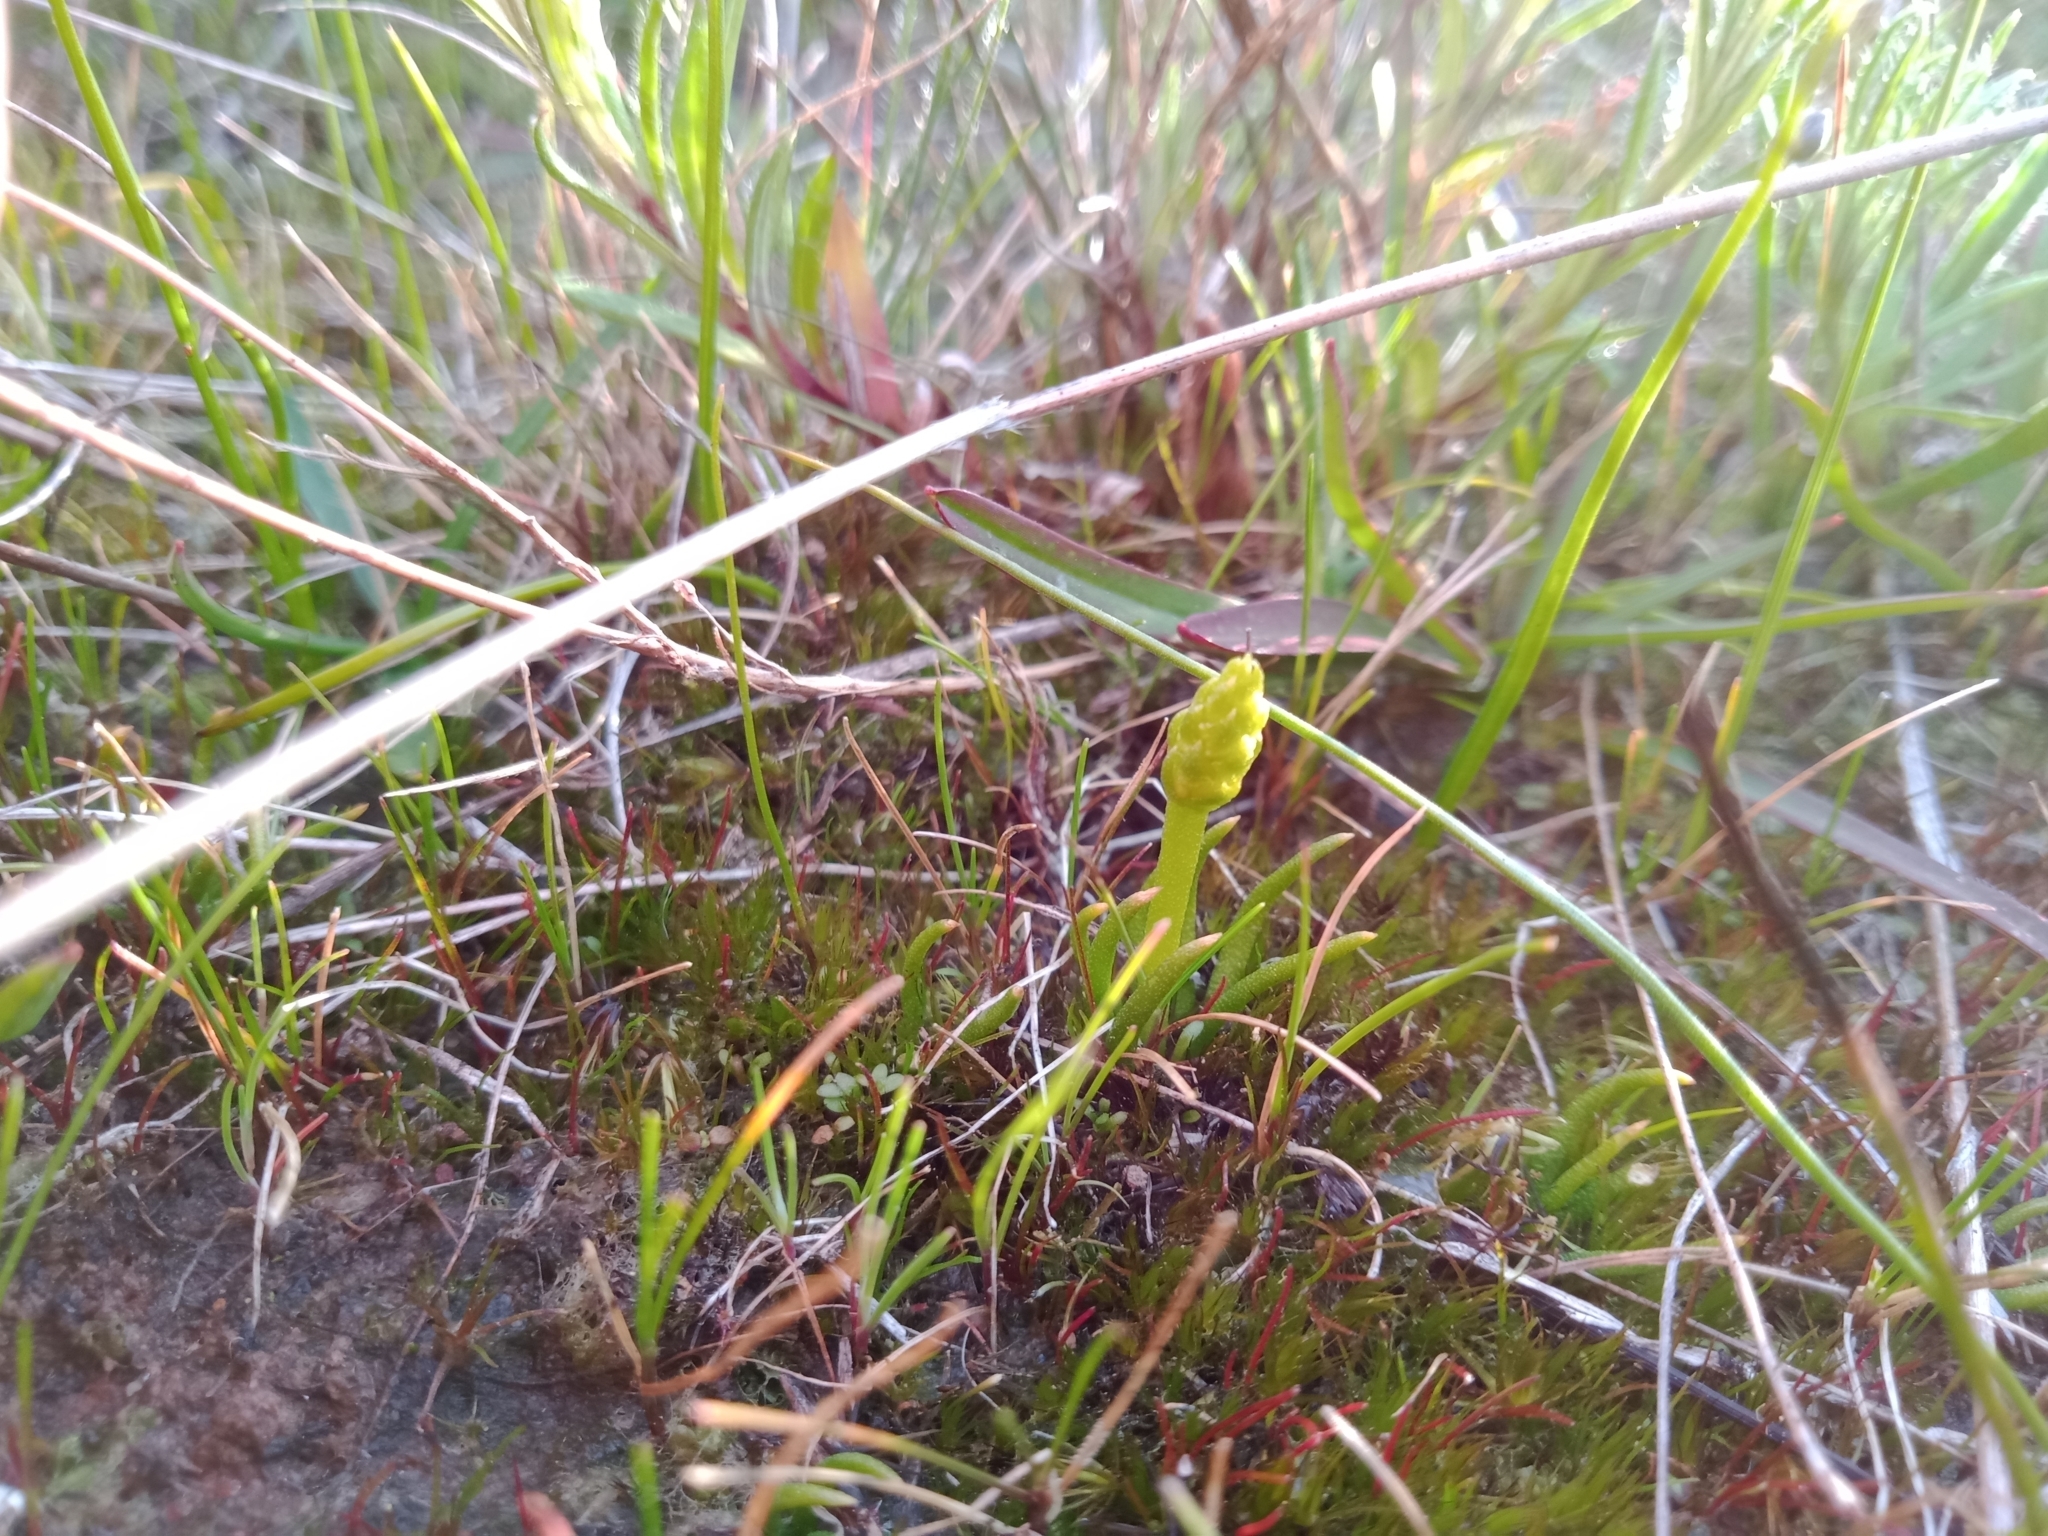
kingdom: Plantae
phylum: Tracheophyta
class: Lycopodiopsida
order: Lycopodiales
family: Lycopodiaceae
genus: Phylloglossum
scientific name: Phylloglossum drummondii
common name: Pigmy-club-moss
